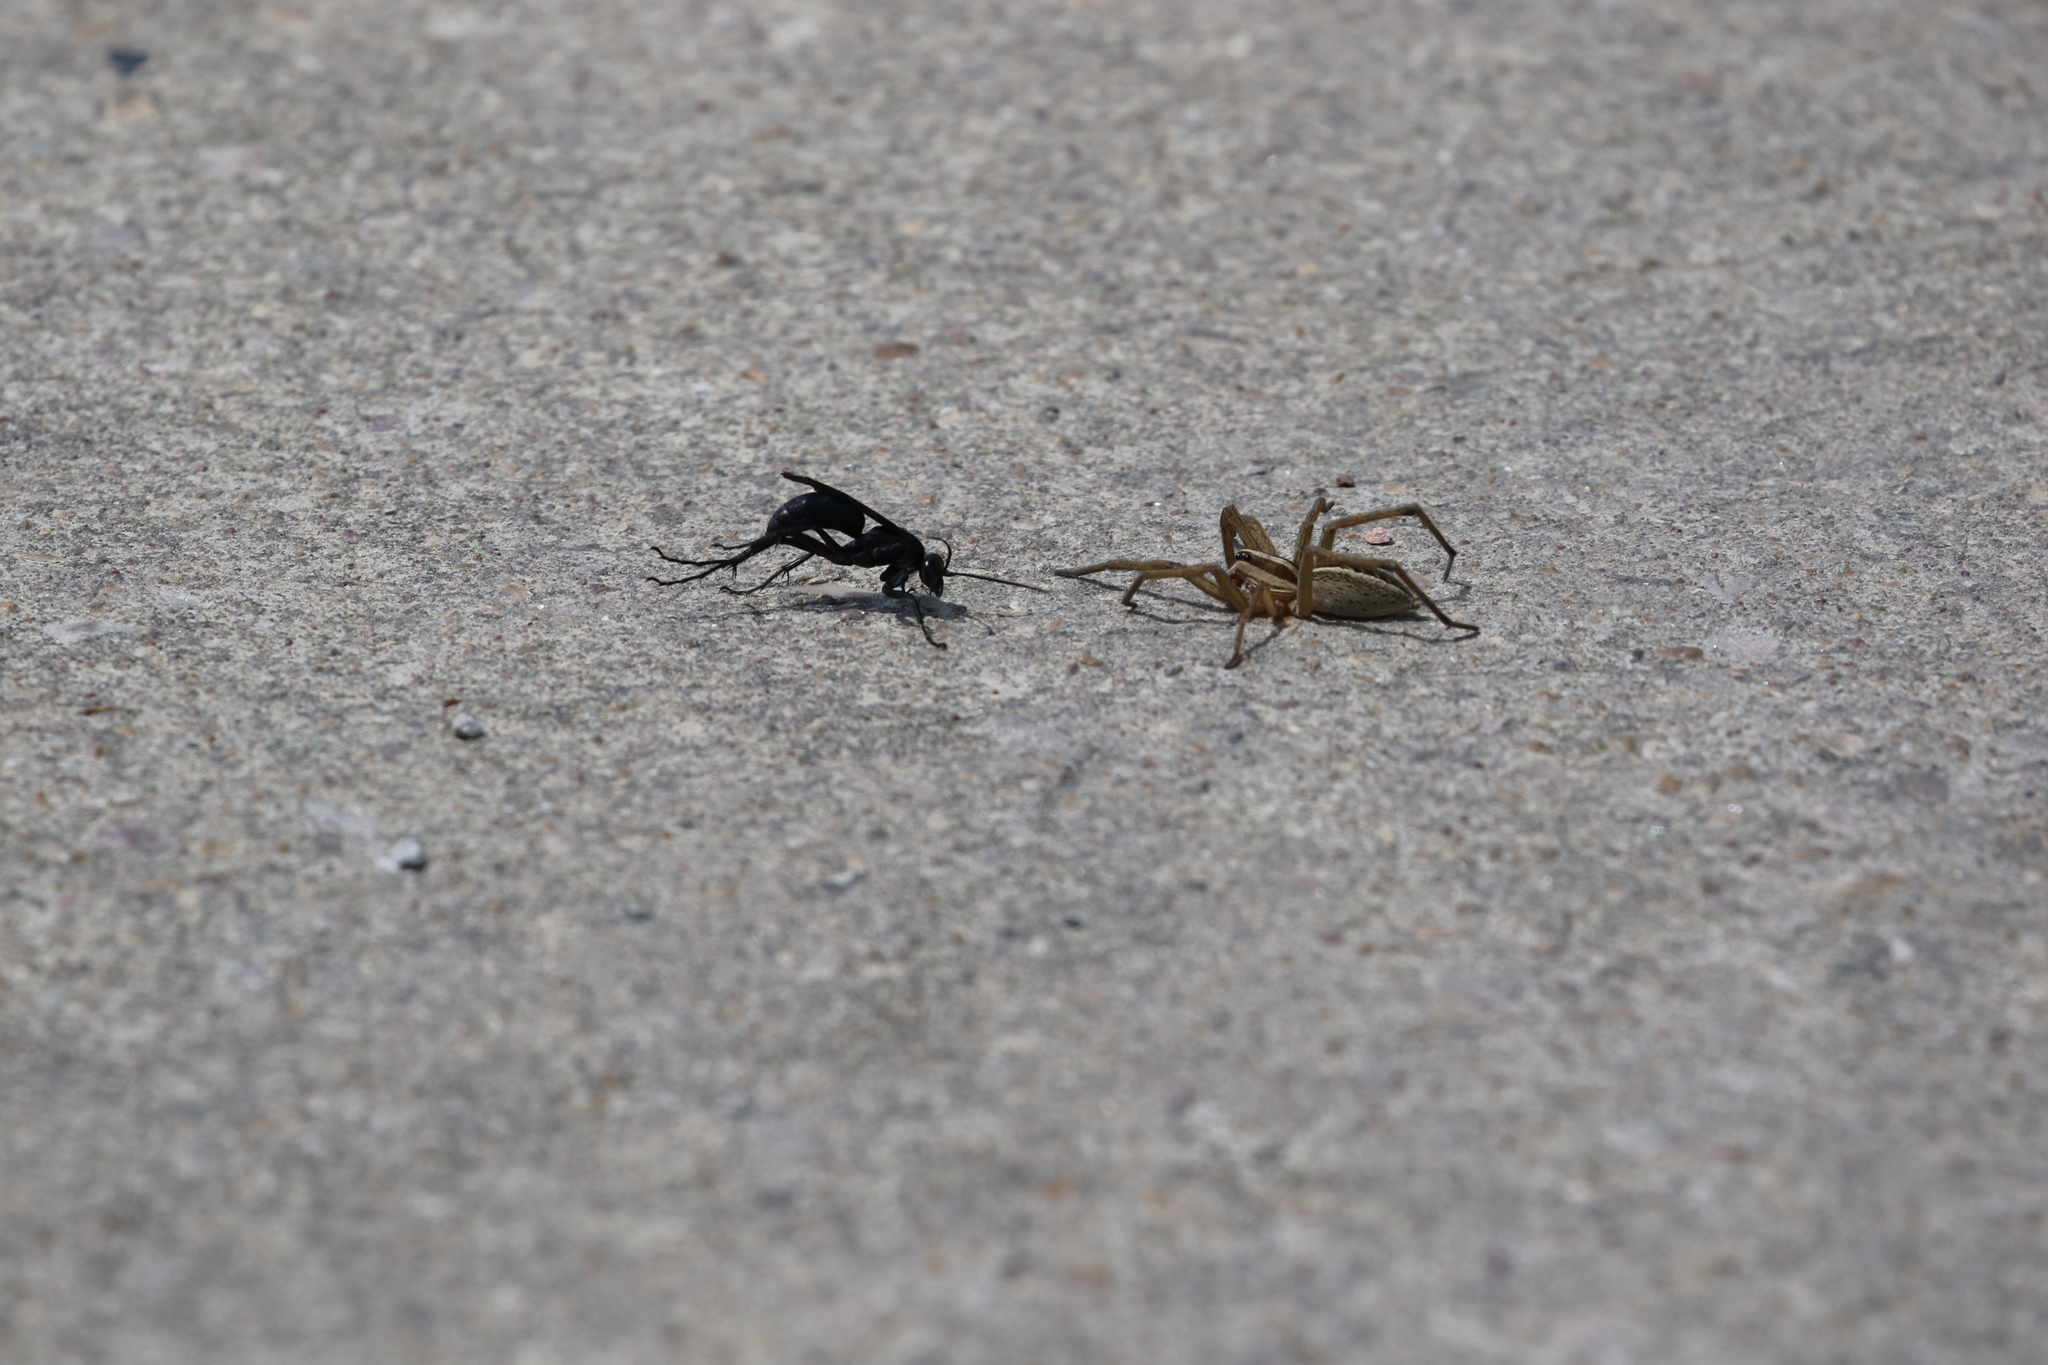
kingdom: Animalia
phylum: Arthropoda
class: Arachnida
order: Araneae
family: Lycosidae
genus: Rabidosa
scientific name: Rabidosa rabida
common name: Rabid wolf spider
